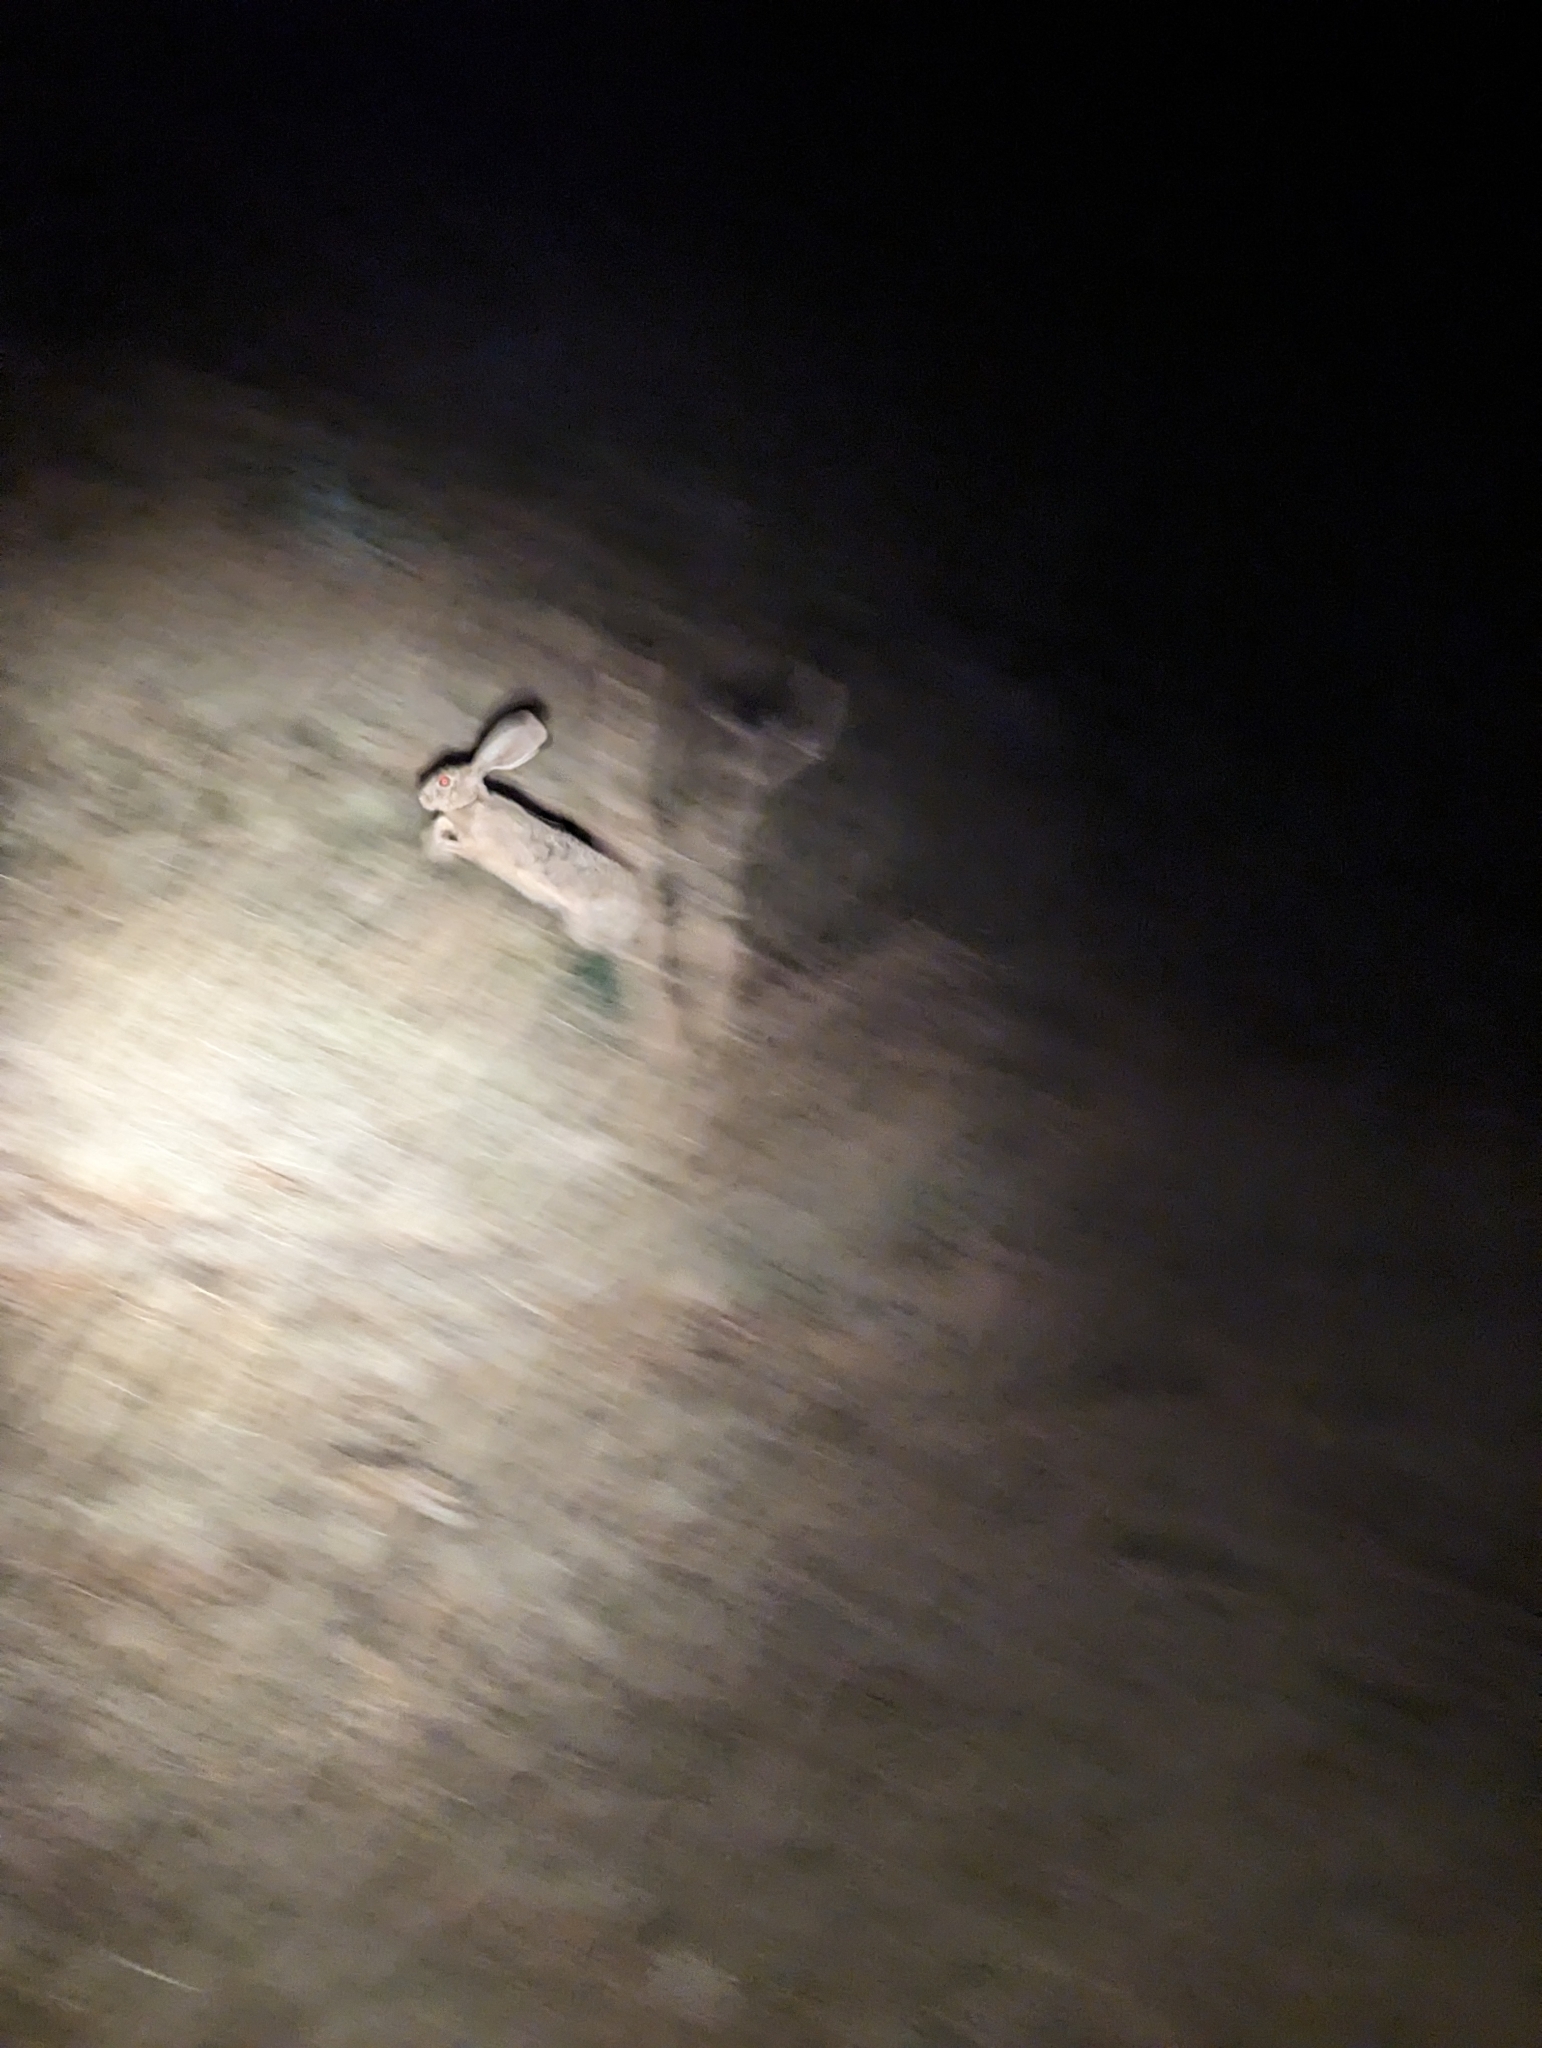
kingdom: Animalia
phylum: Chordata
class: Mammalia
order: Lagomorpha
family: Leporidae
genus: Lepus
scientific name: Lepus californicus
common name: Black-tailed jackrabbit
